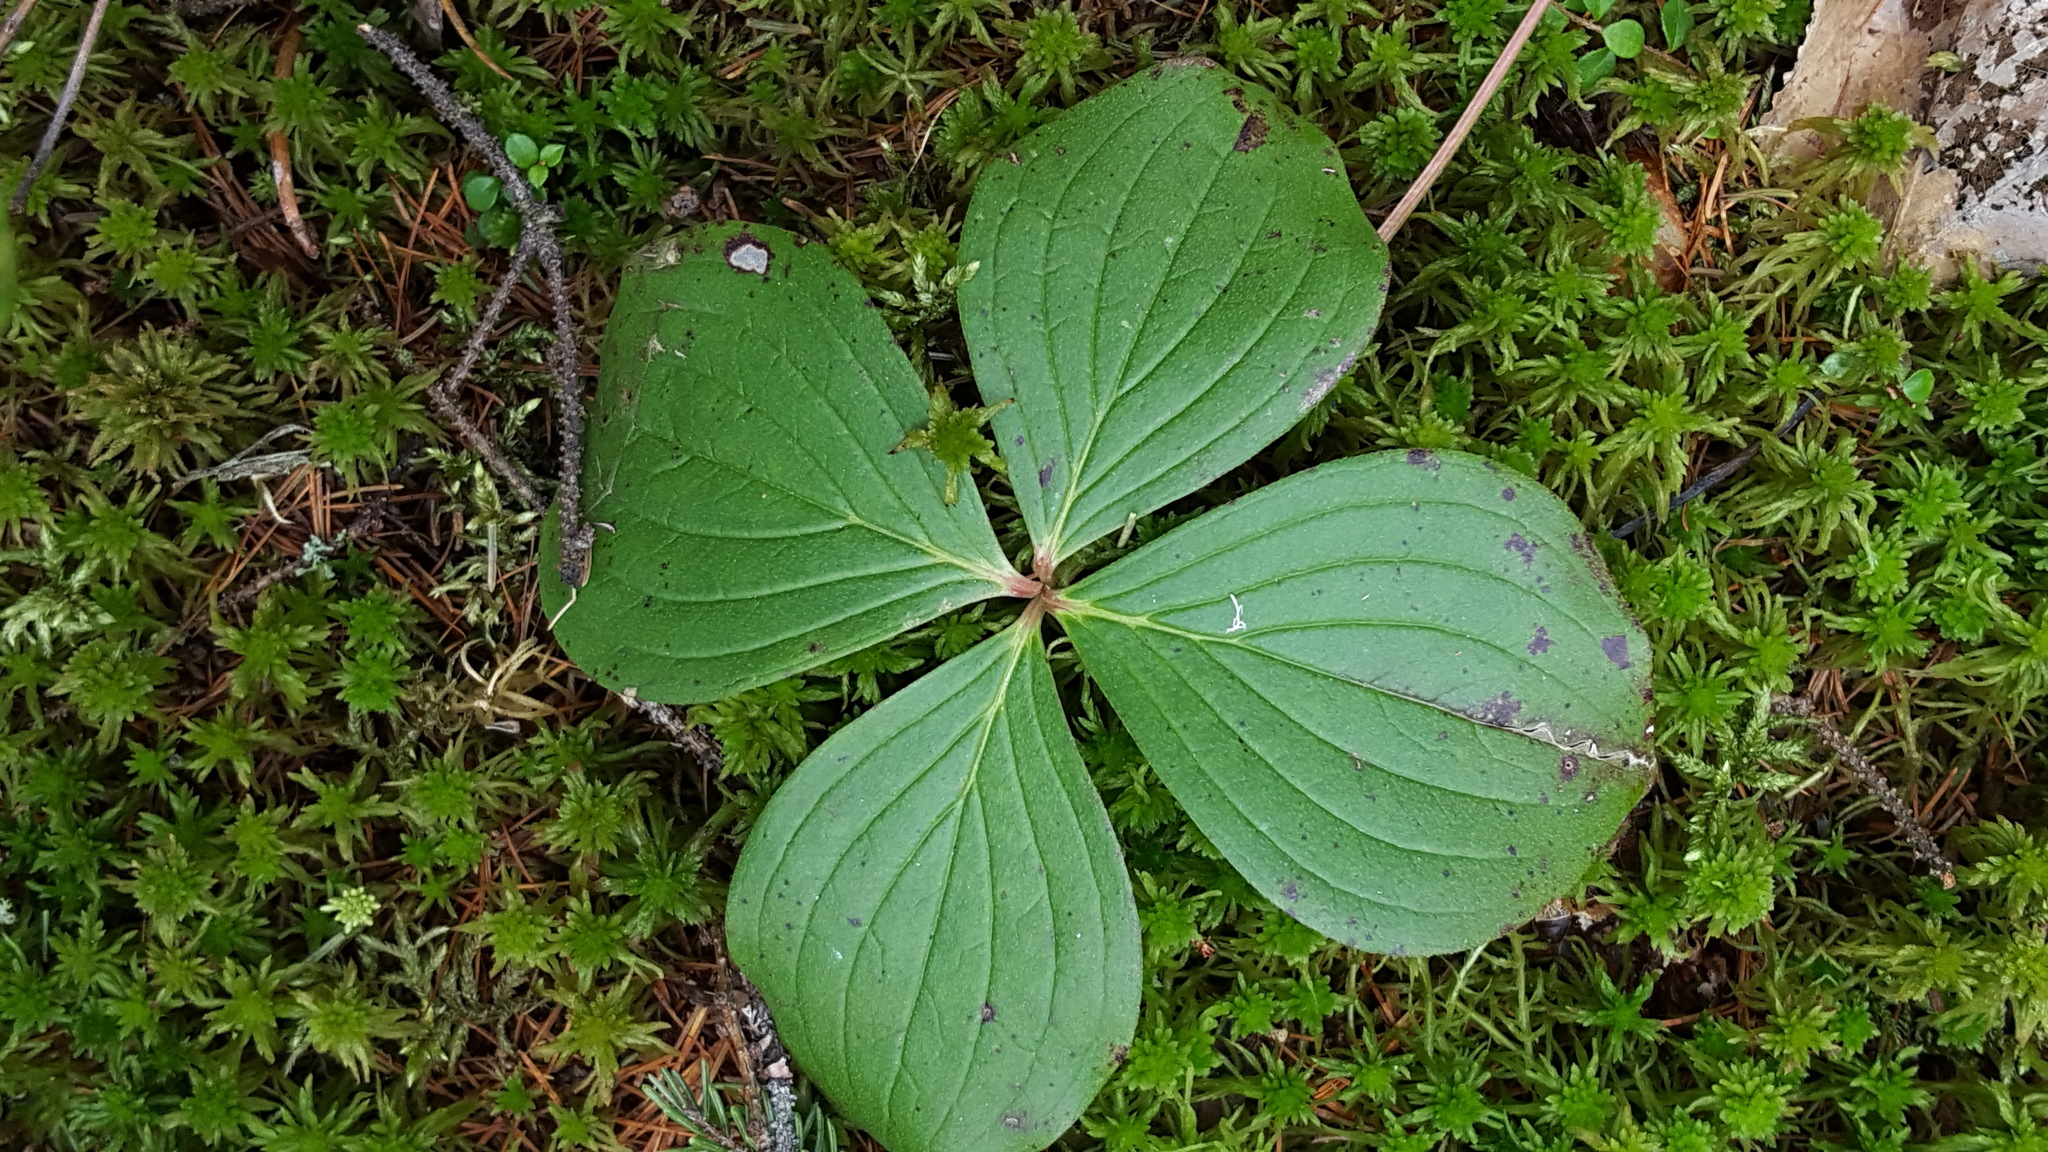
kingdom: Plantae
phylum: Tracheophyta
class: Magnoliopsida
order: Cornales
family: Cornaceae
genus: Cornus
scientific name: Cornus canadensis
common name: Creeping dogwood
